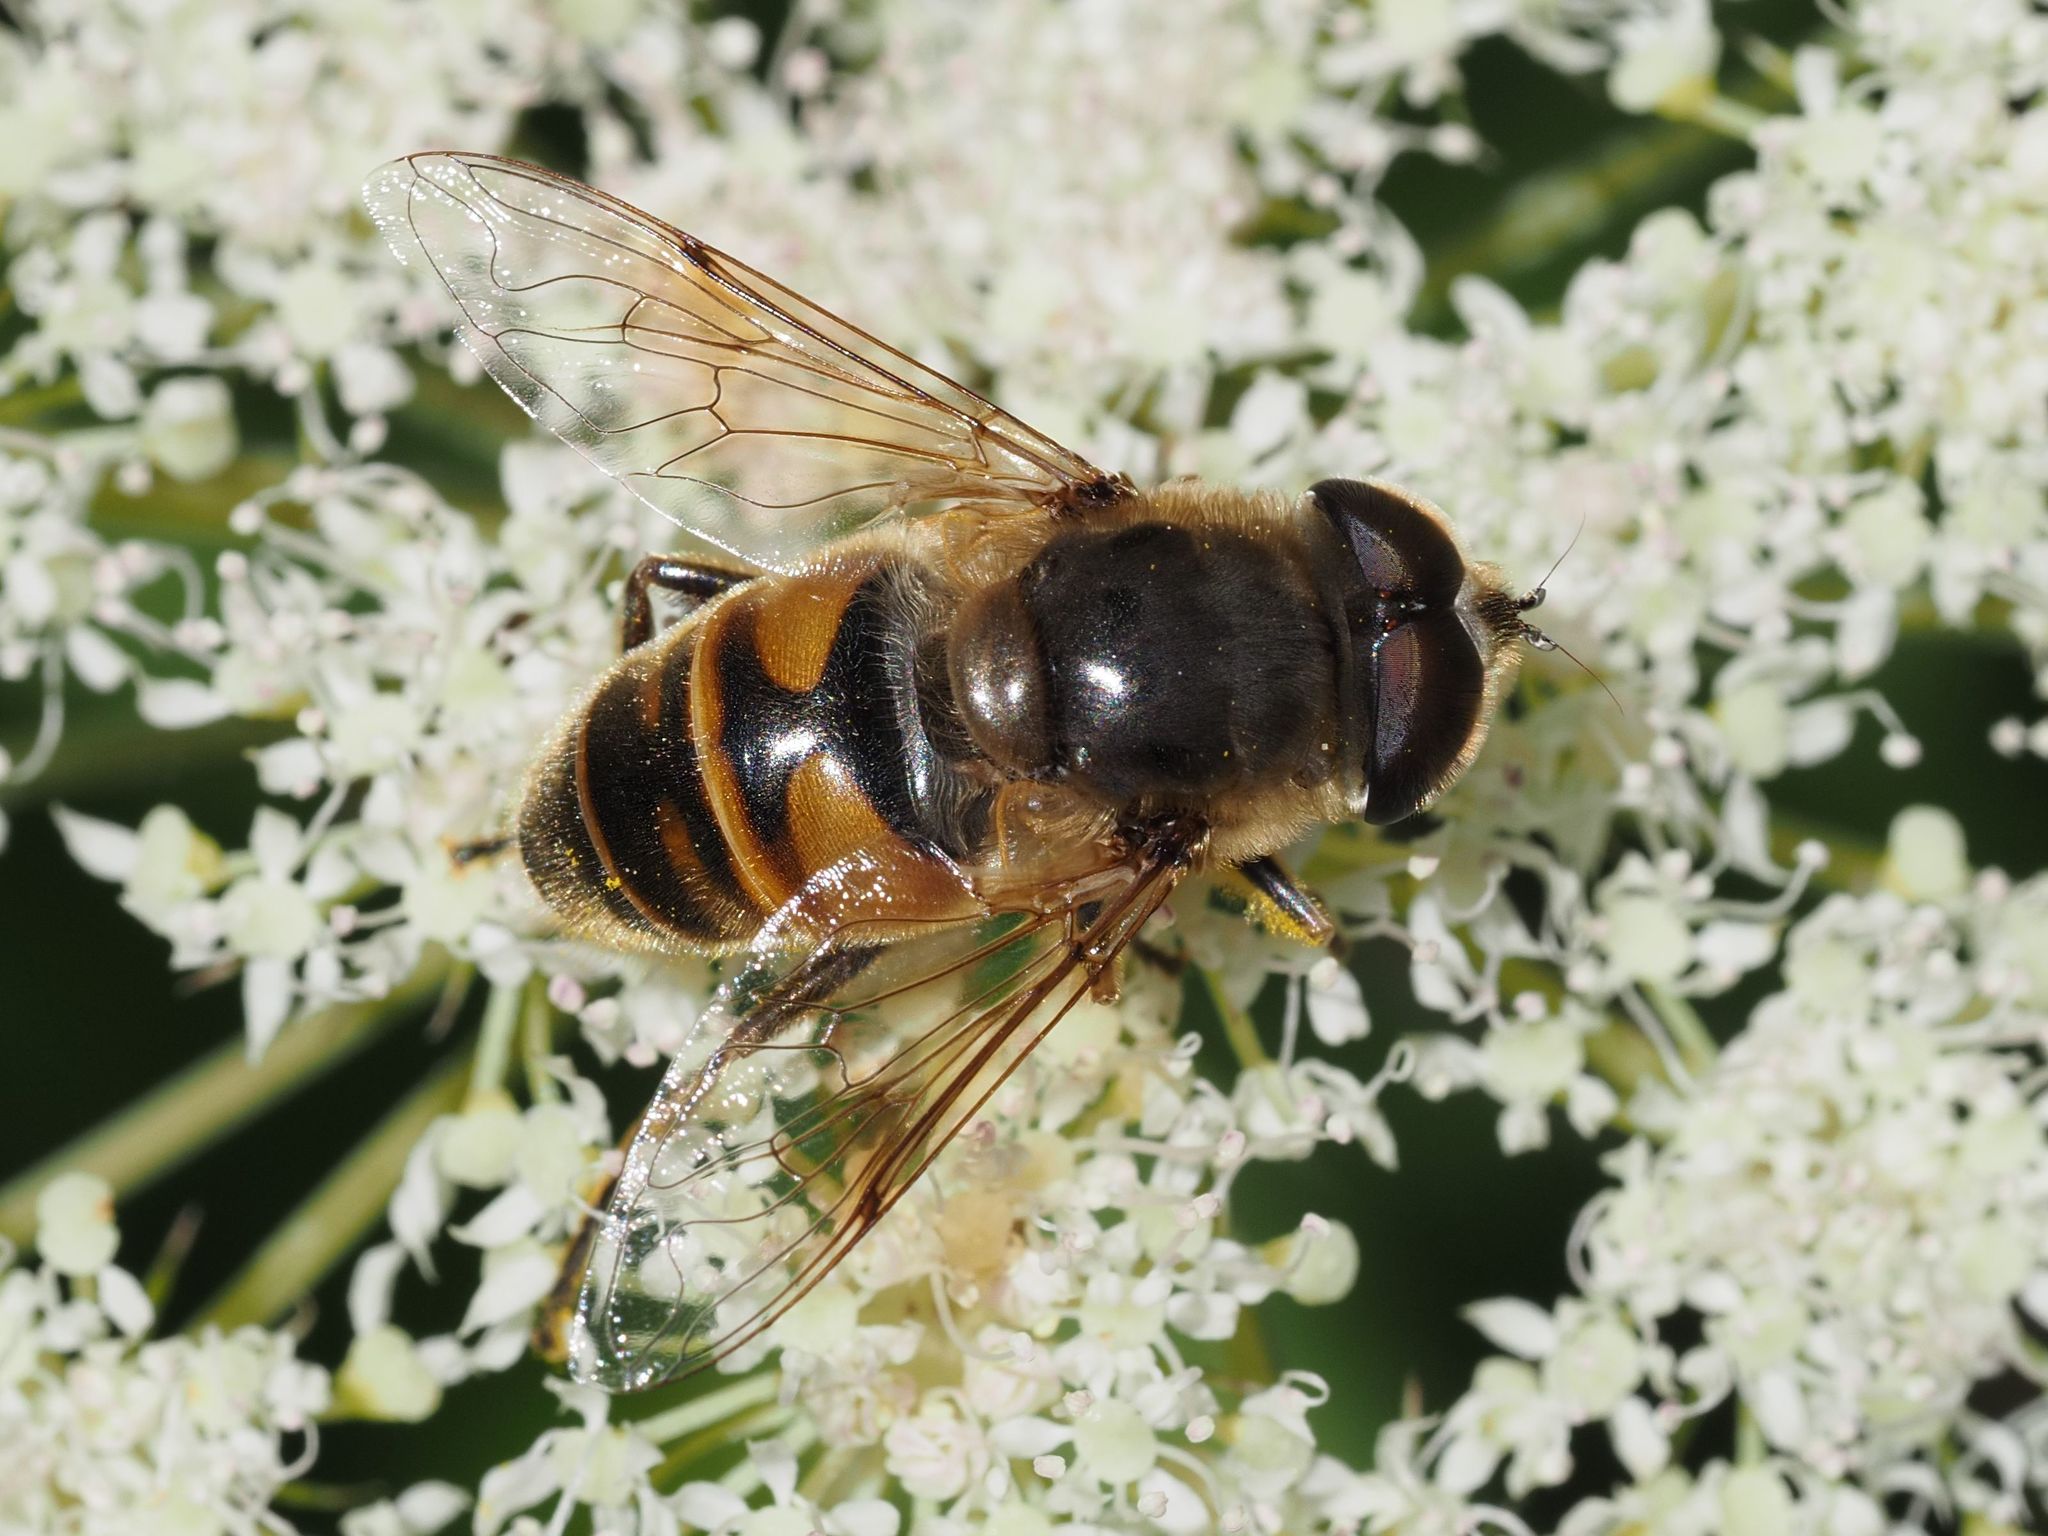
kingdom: Animalia
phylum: Arthropoda
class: Insecta
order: Diptera
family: Syrphidae
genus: Eristalis
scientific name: Eristalis tenax
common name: Drone fly
